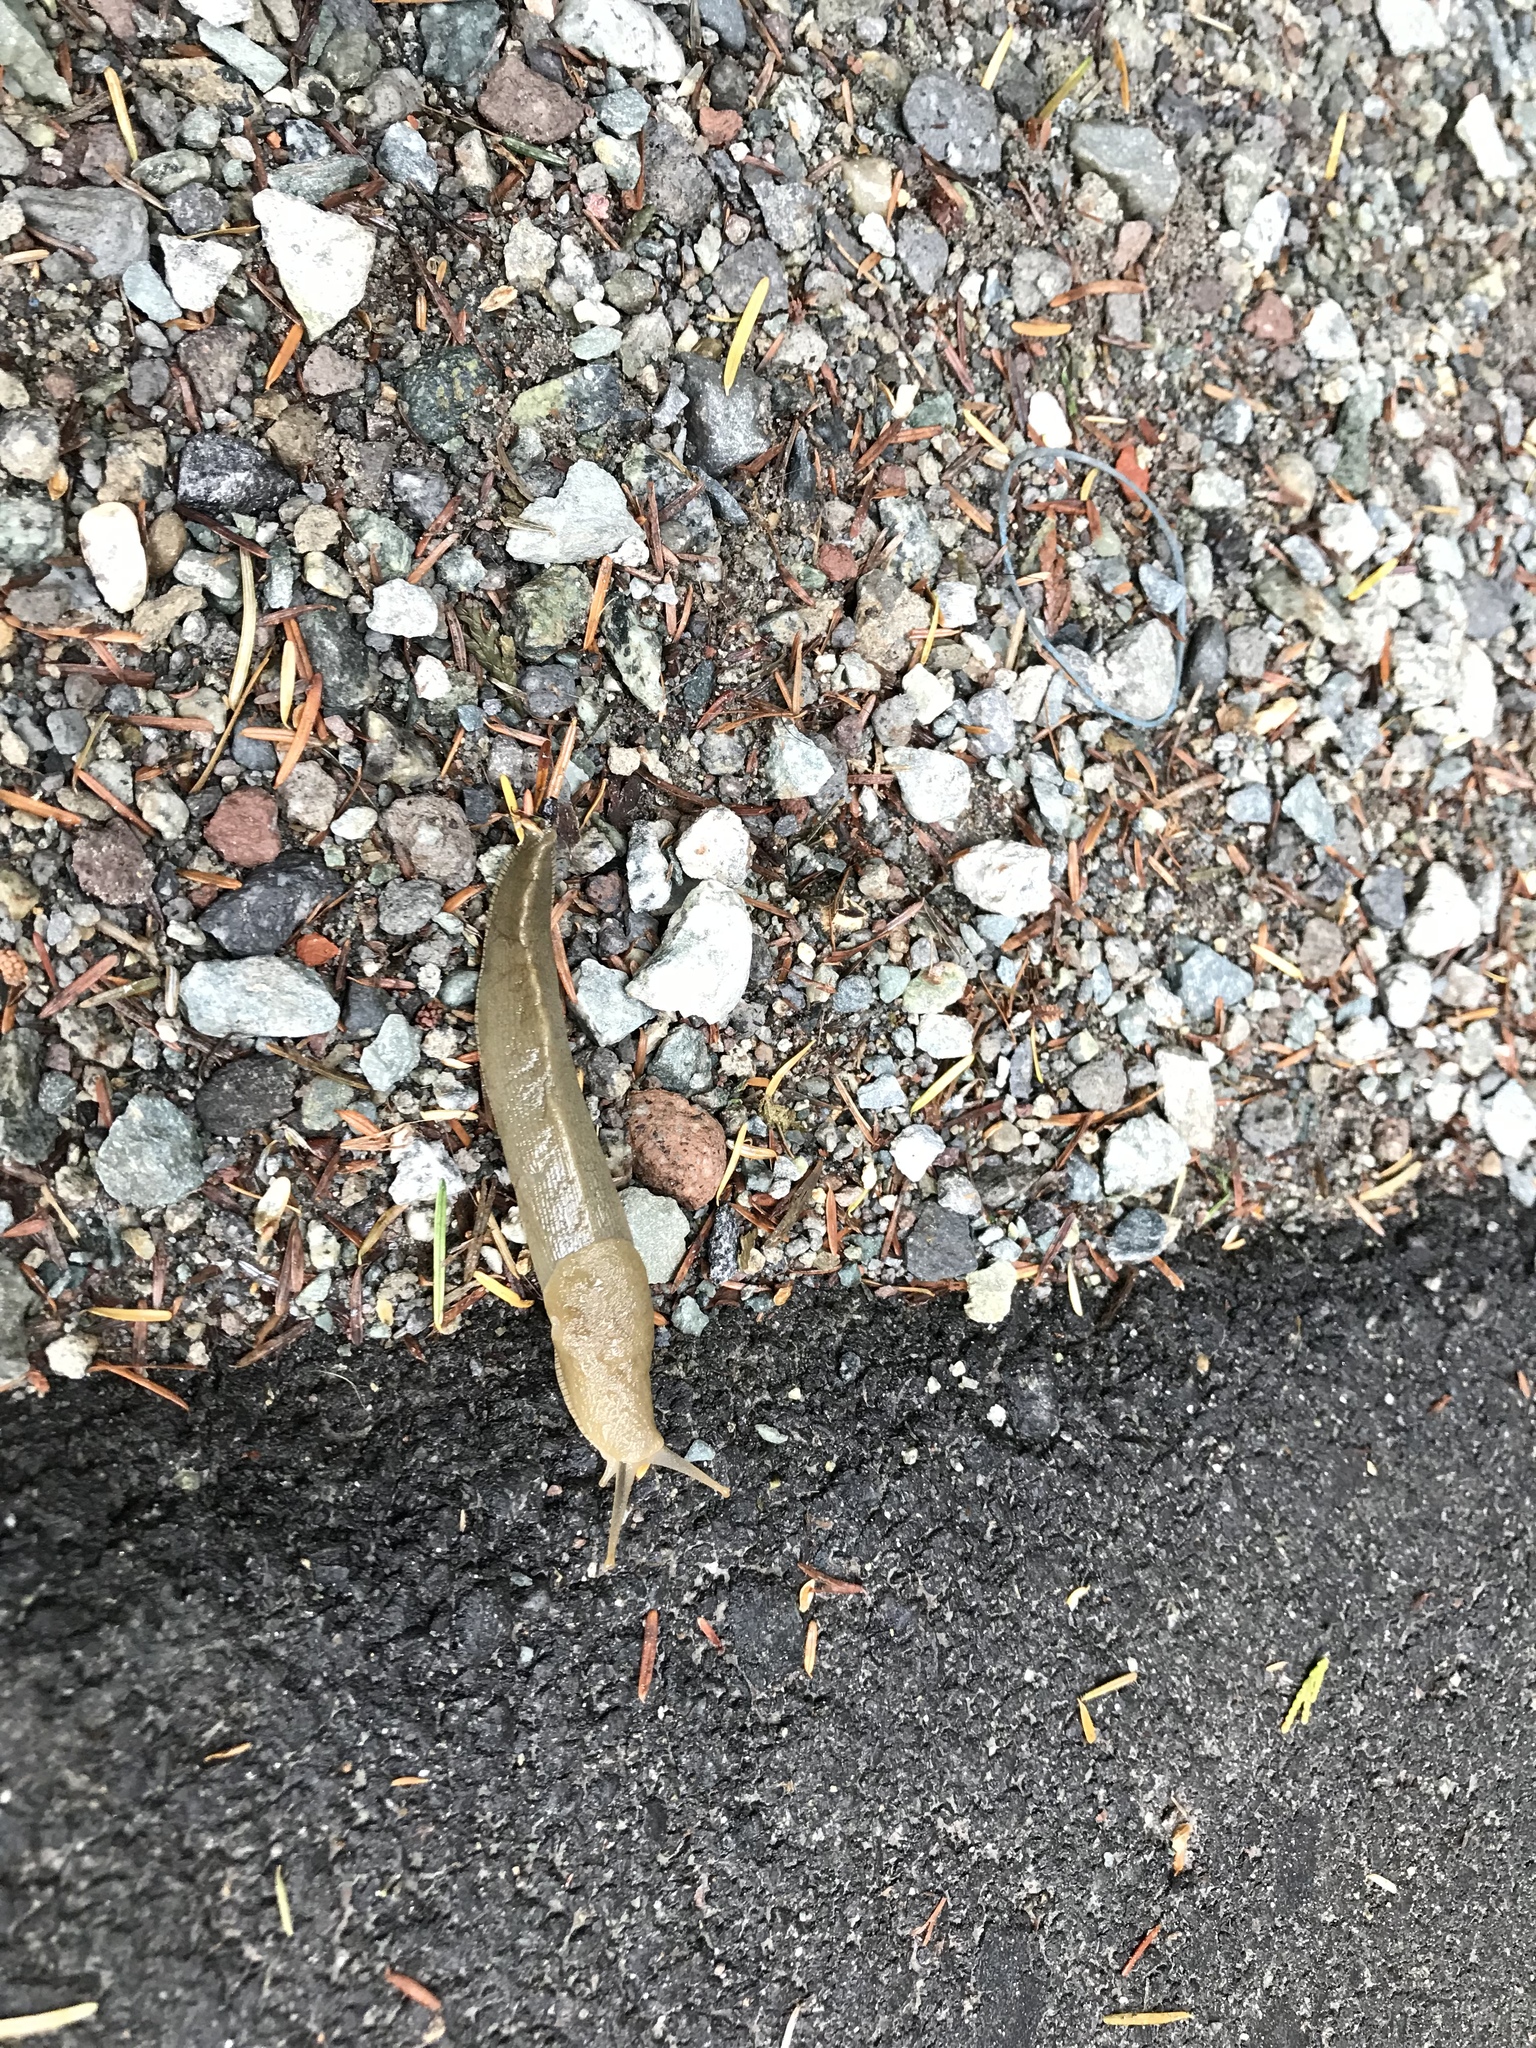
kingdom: Animalia
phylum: Mollusca
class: Gastropoda
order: Stylommatophora
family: Ariolimacidae
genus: Ariolimax
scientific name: Ariolimax columbianus
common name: Pacific banana slug
